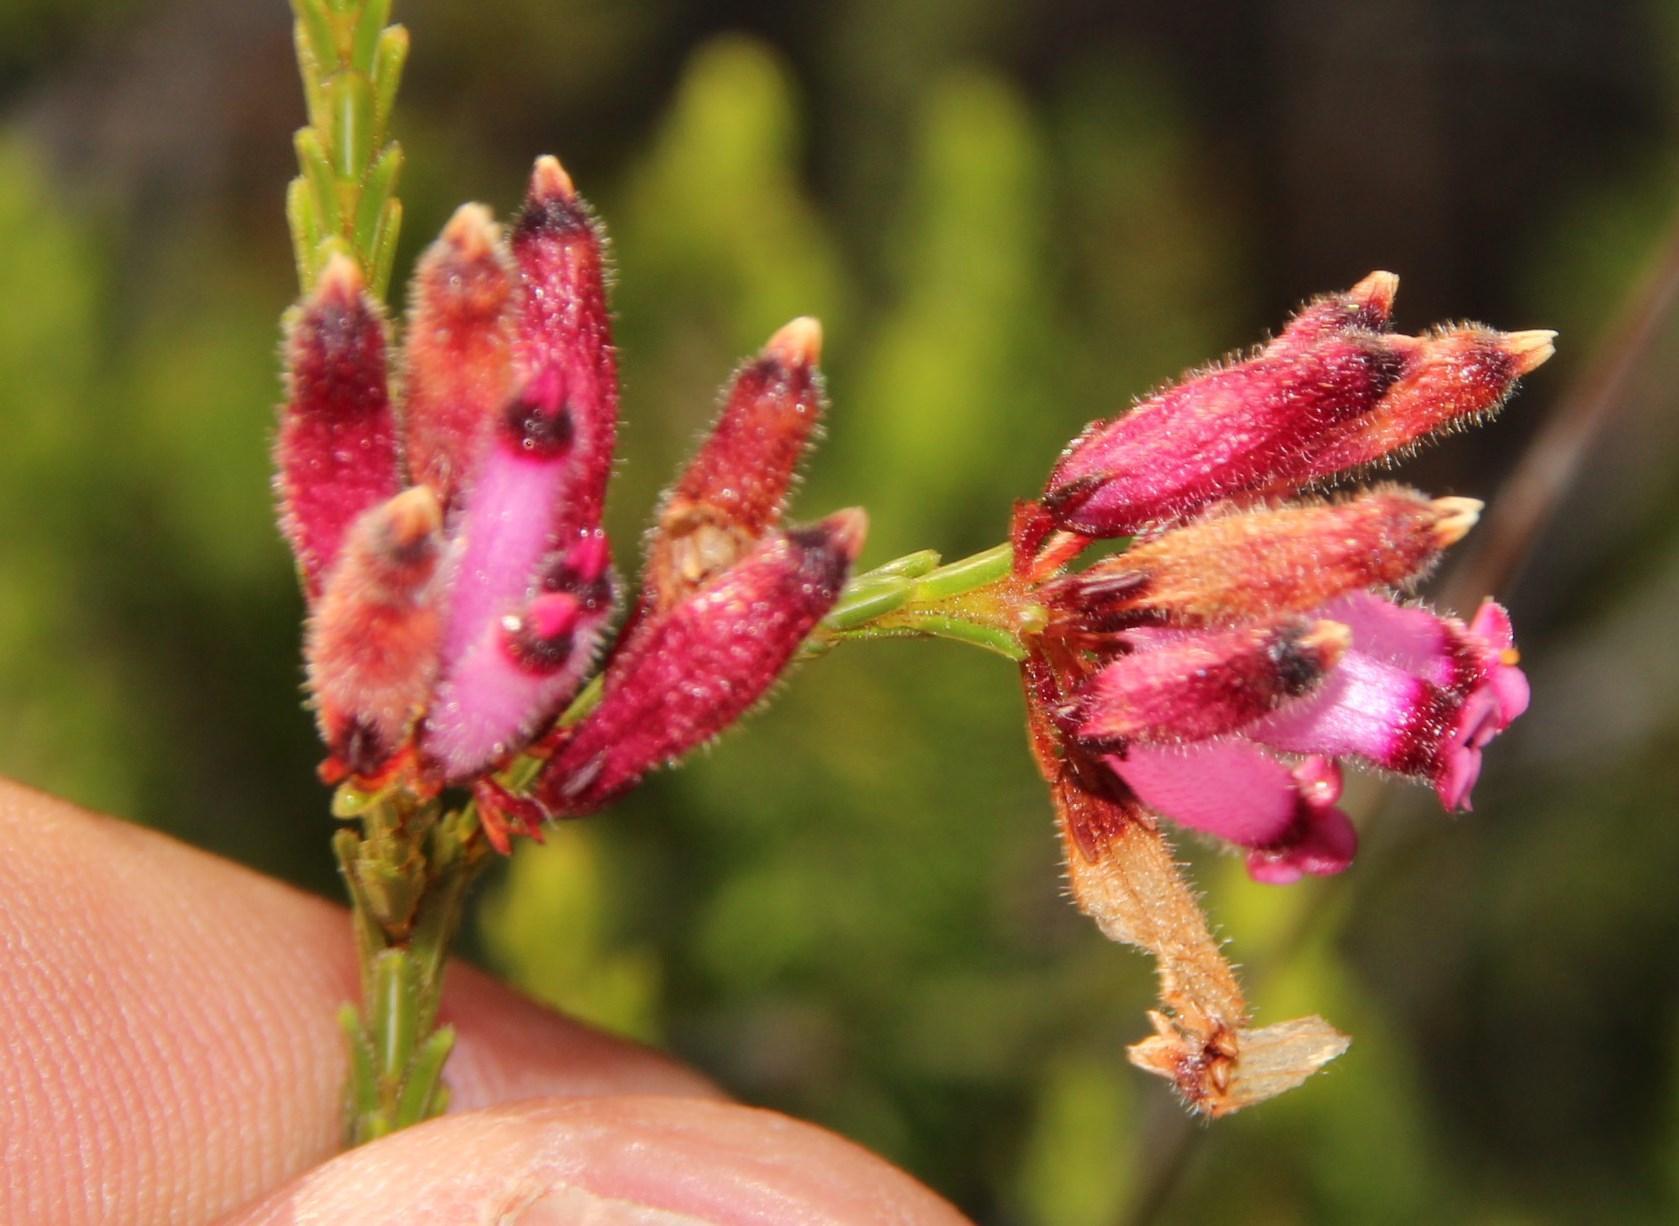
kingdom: Plantae
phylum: Tracheophyta
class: Magnoliopsida
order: Ericales
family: Ericaceae
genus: Erica
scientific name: Erica cristata
